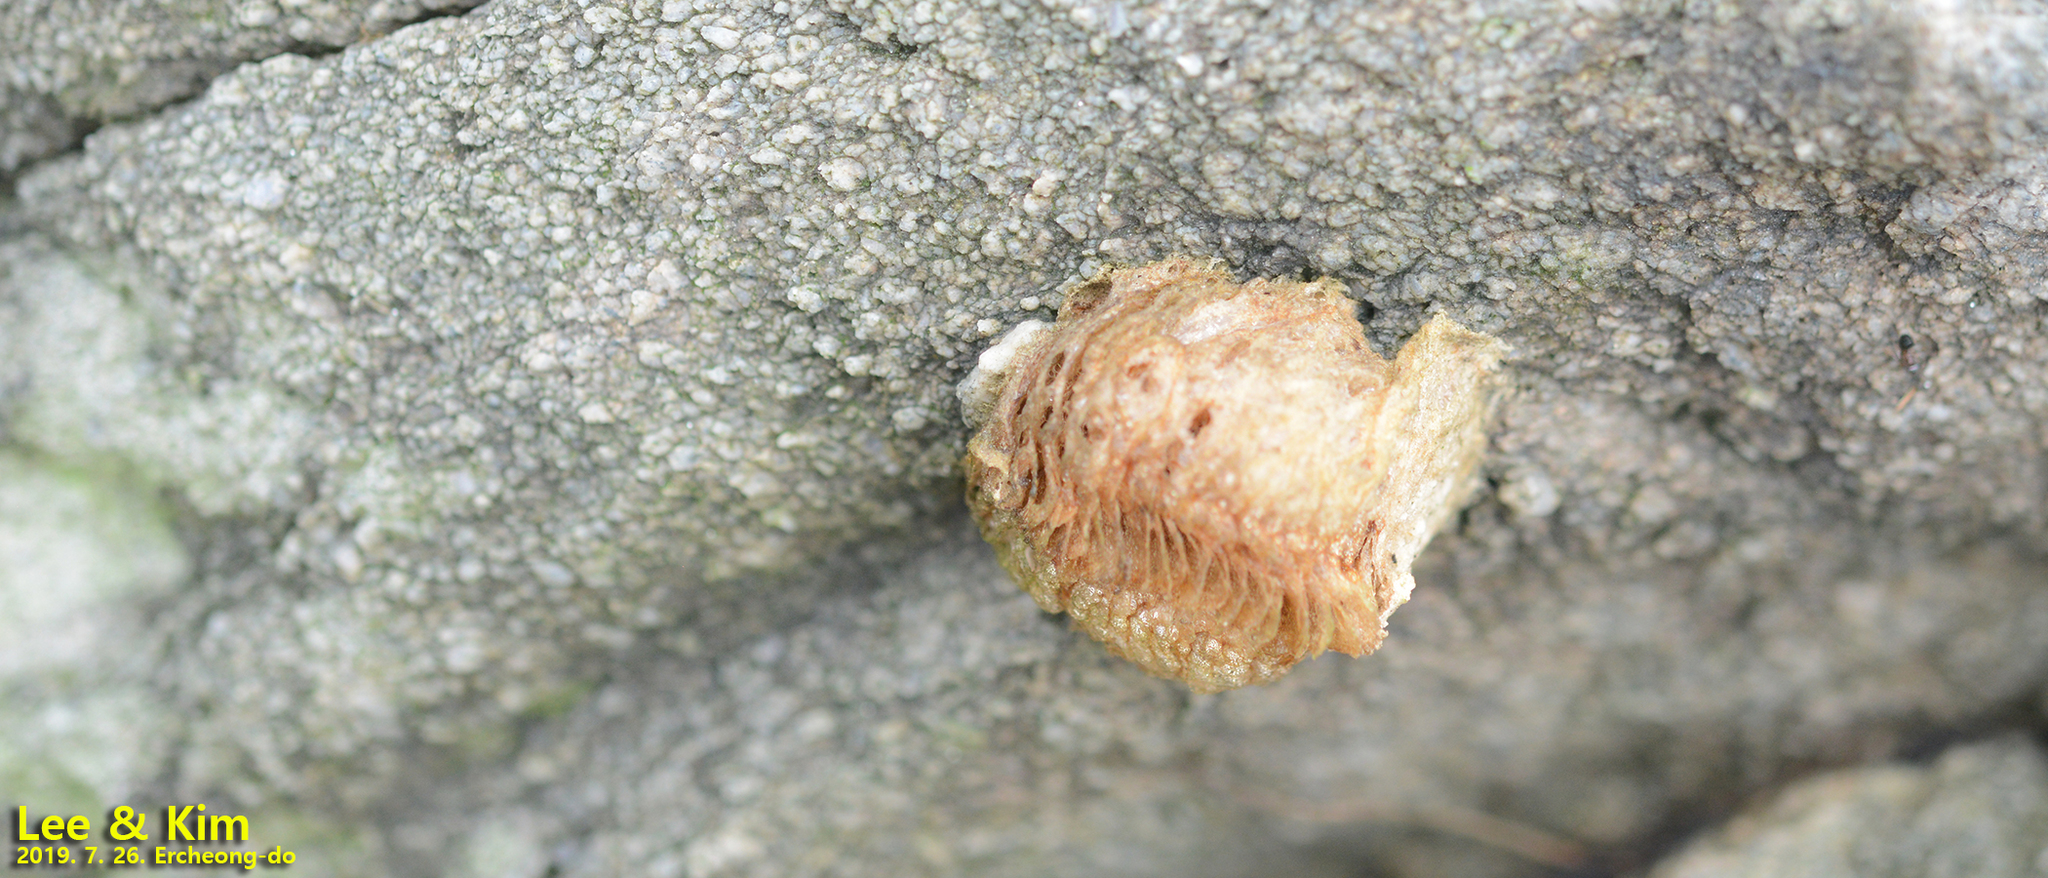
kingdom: Animalia
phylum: Arthropoda
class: Insecta
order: Mantodea
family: Mantidae
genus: Tenodera
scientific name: Tenodera sinensis
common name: Chinese mantis
